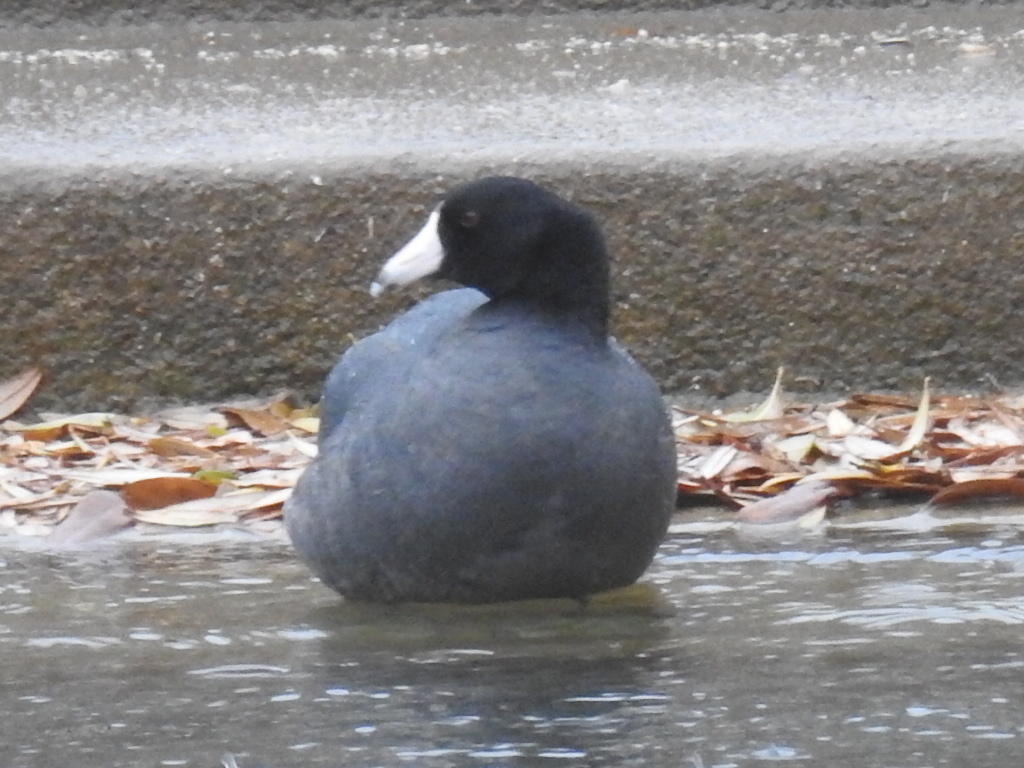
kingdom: Animalia
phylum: Chordata
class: Aves
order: Gruiformes
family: Rallidae
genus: Fulica
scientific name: Fulica americana
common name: American coot
